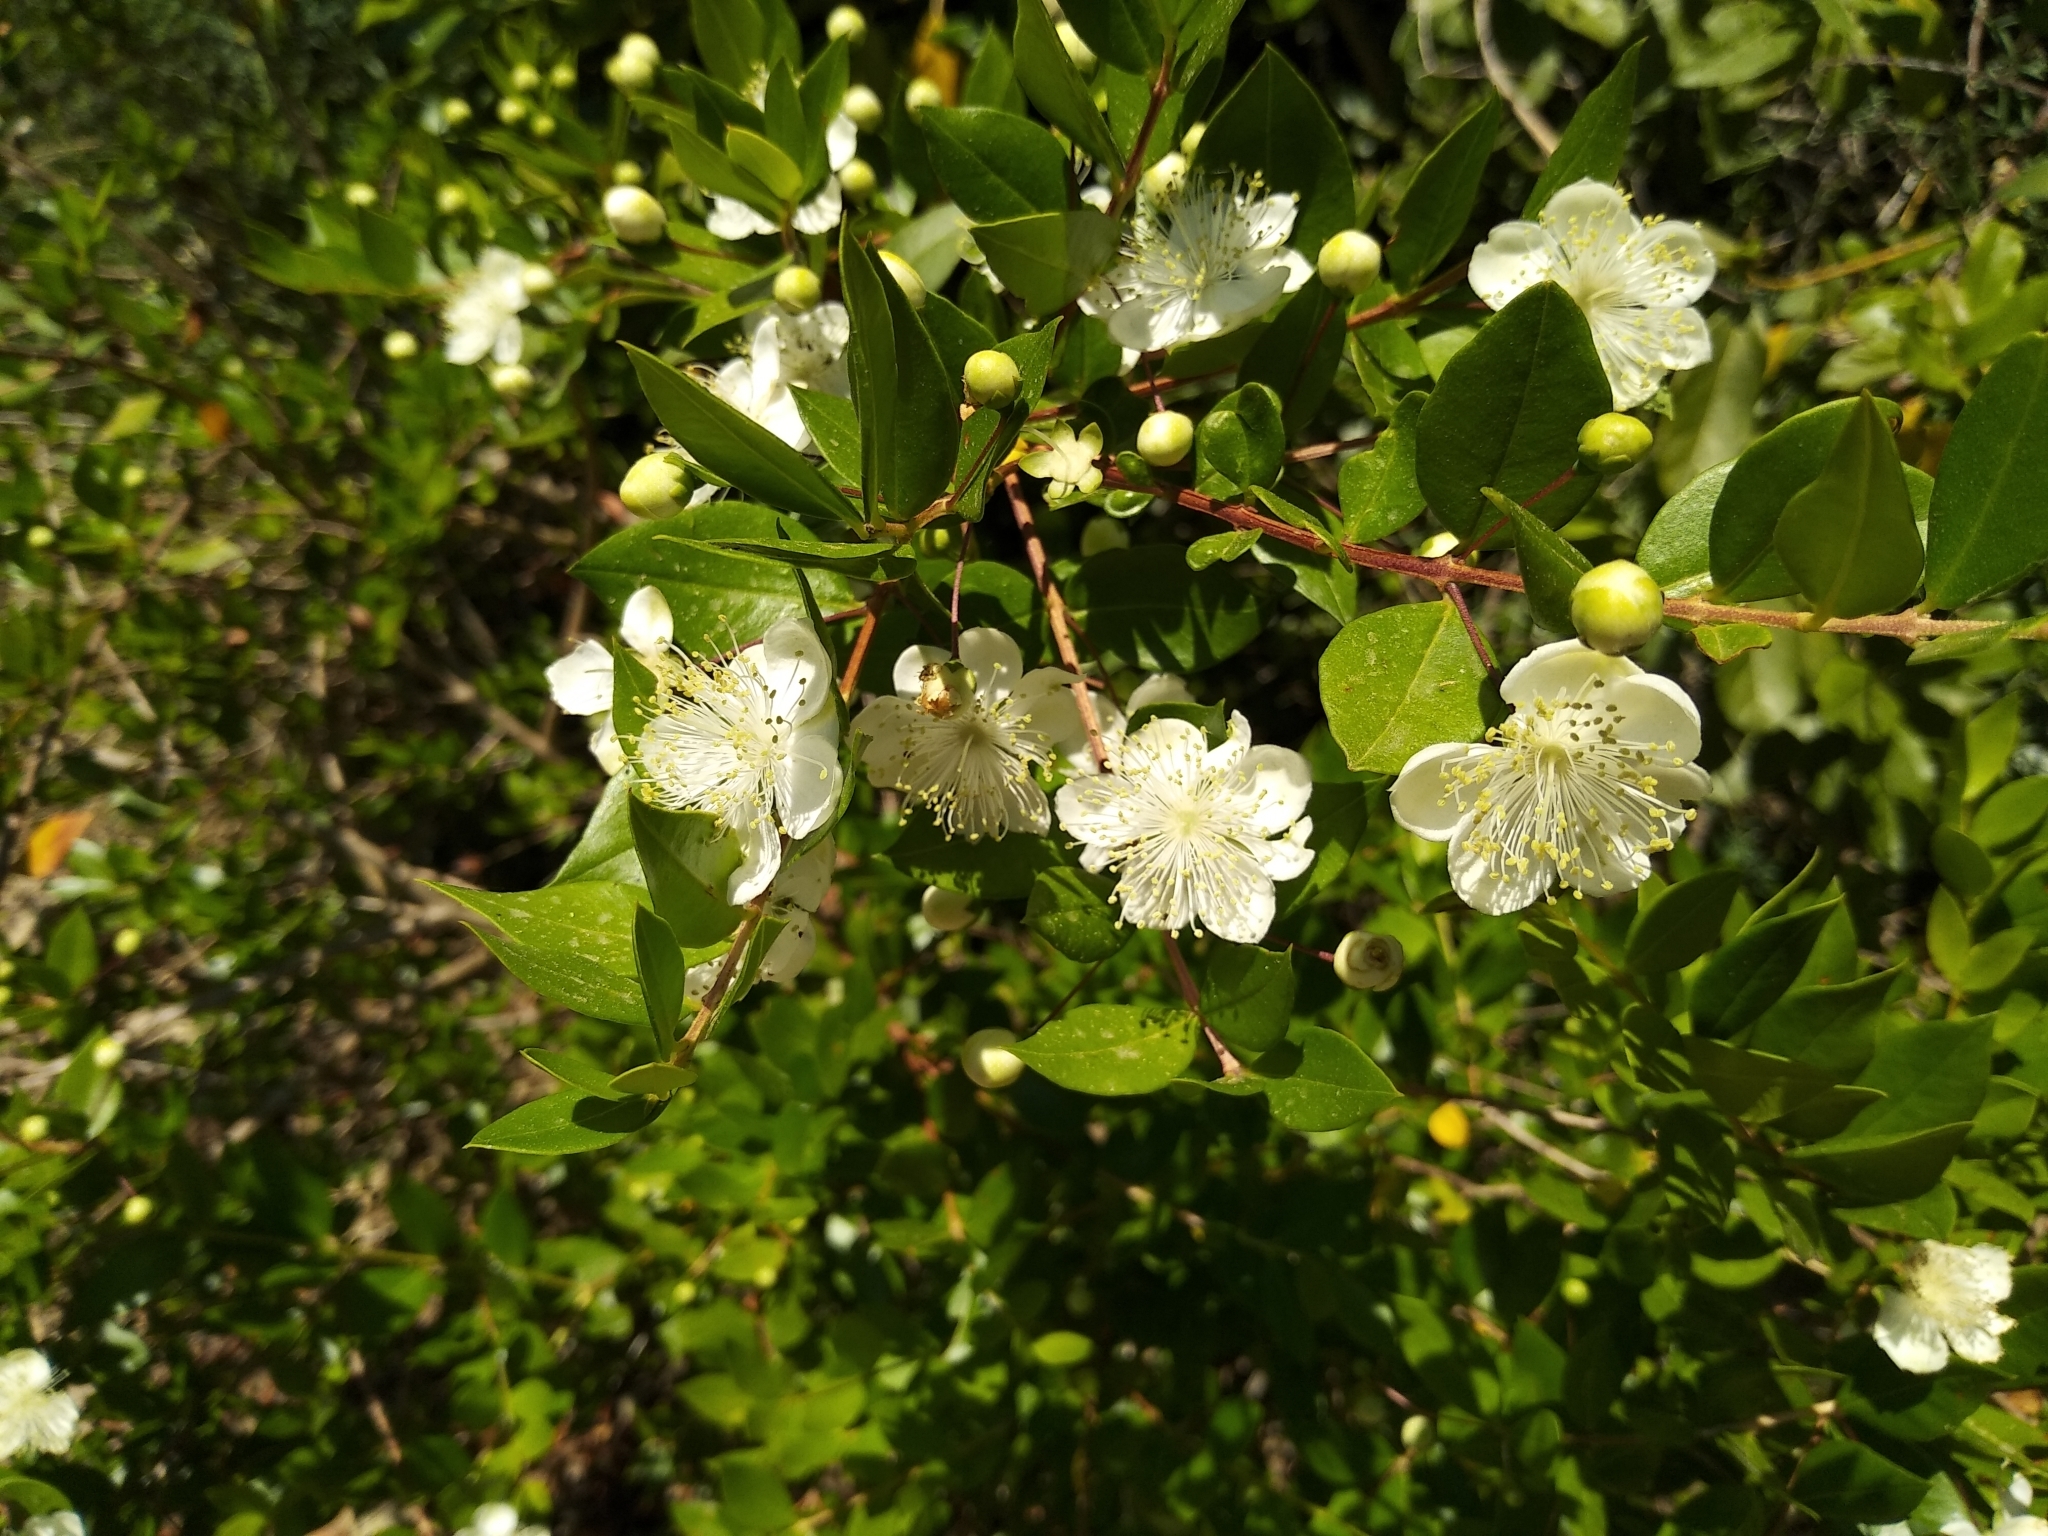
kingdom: Plantae
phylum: Tracheophyta
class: Magnoliopsida
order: Myrtales
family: Myrtaceae
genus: Myrtus
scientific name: Myrtus communis
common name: Myrtle
